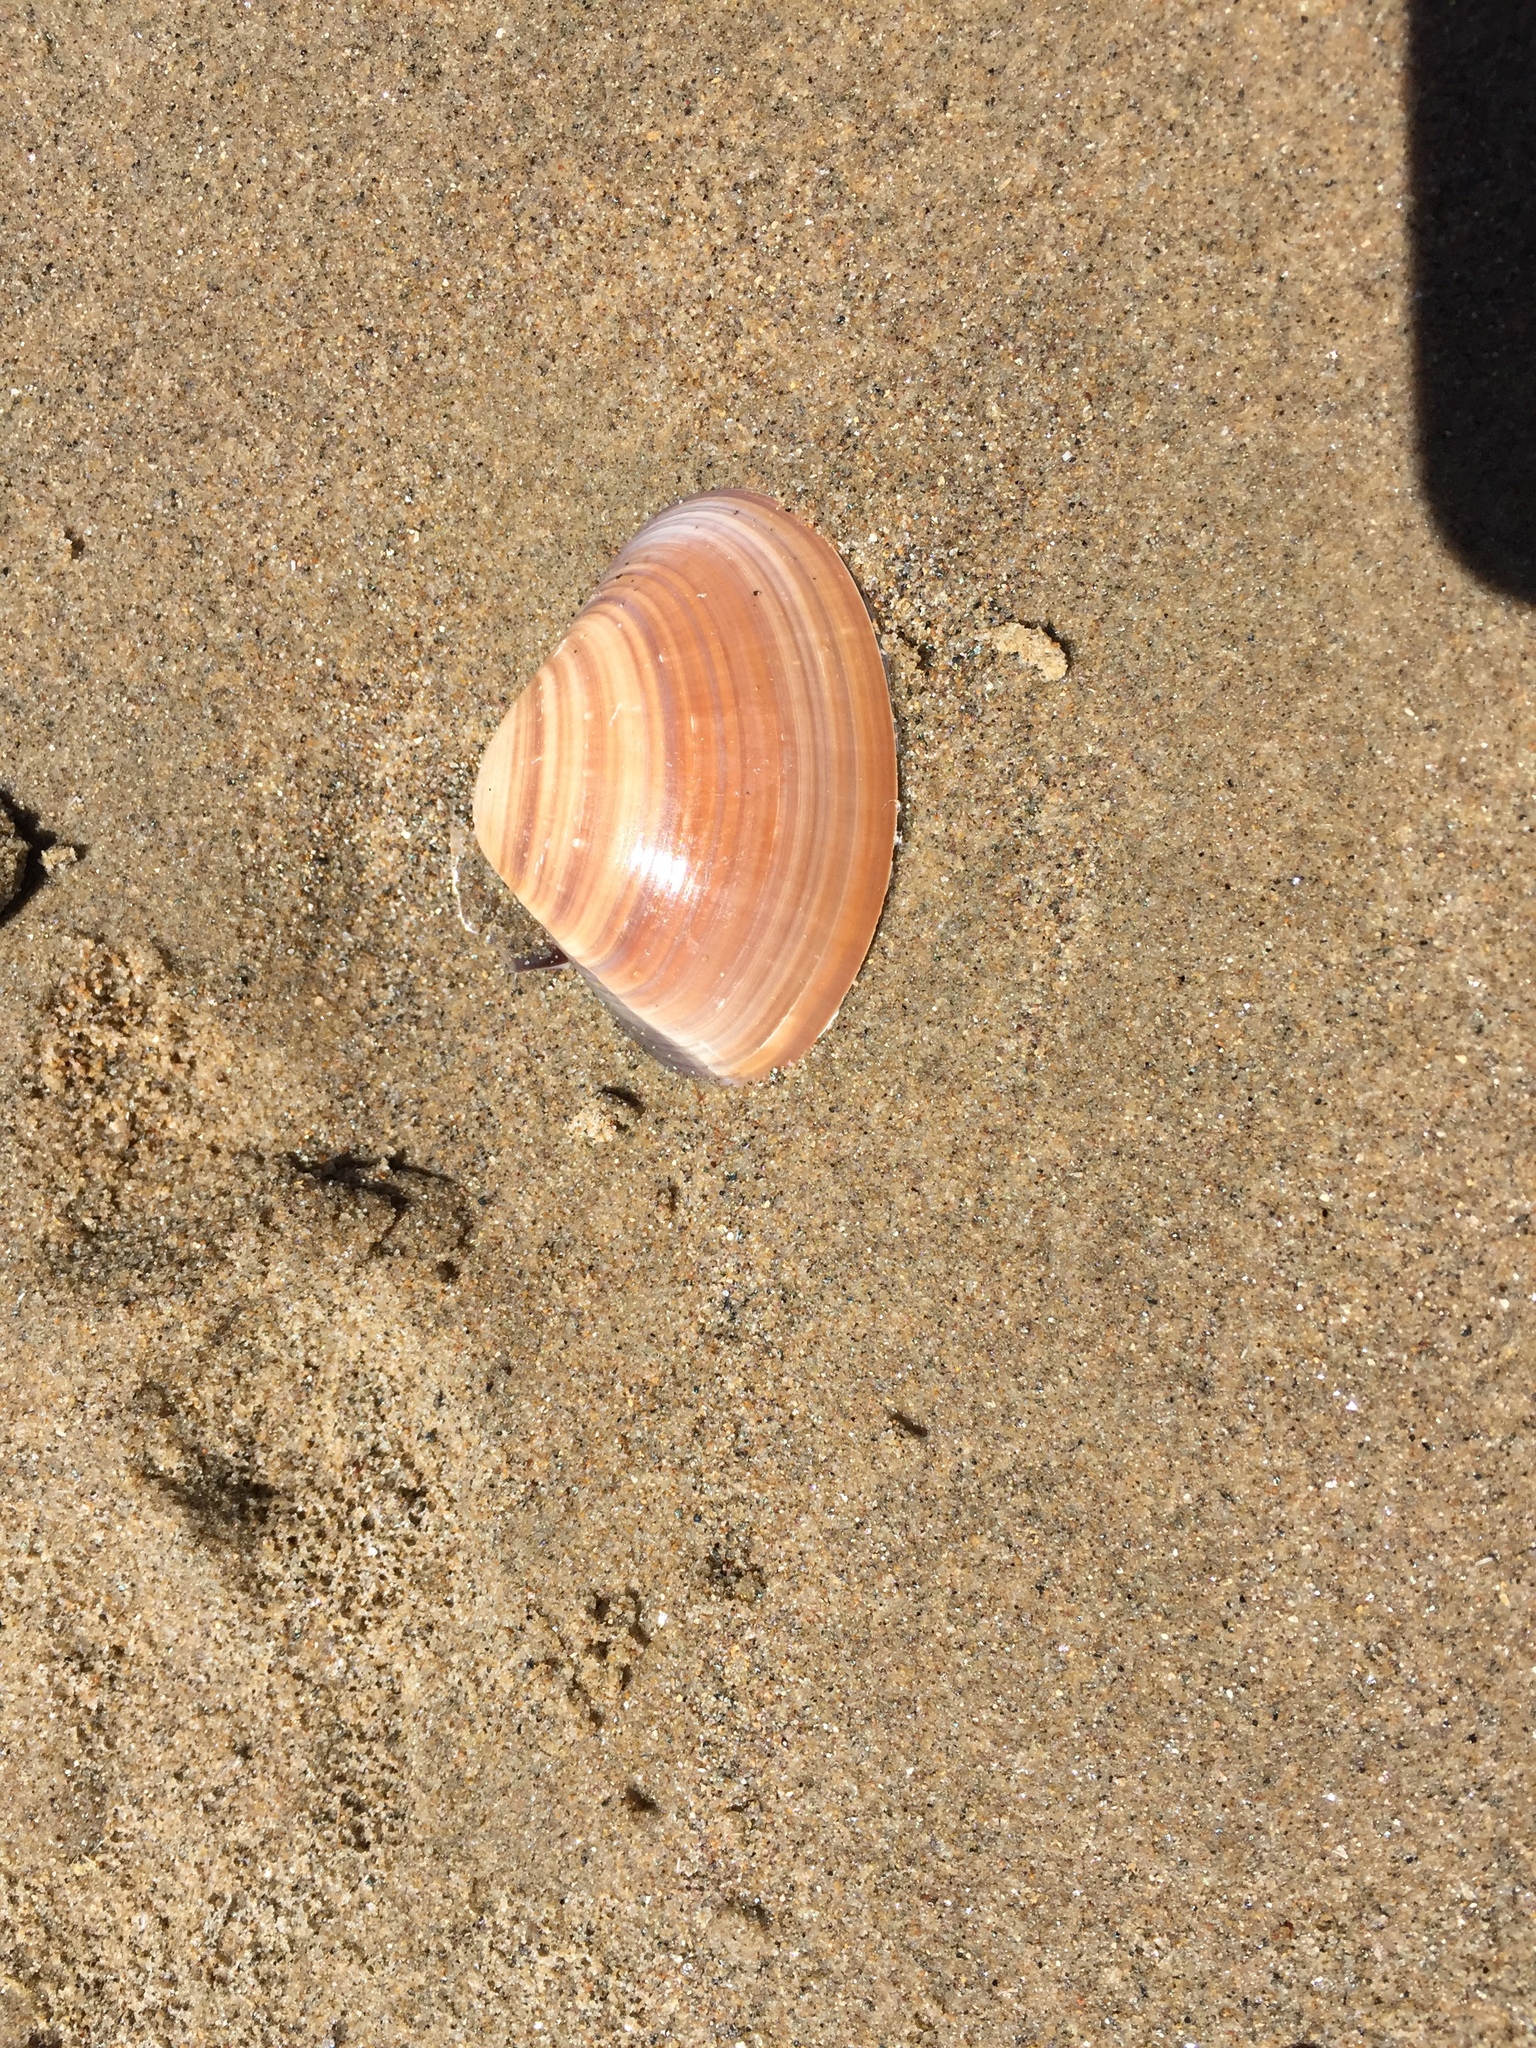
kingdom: Animalia
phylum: Mollusca
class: Bivalvia
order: Venerida
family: Veneridae
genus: Tivela
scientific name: Tivela stultorum
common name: Pismo clam
